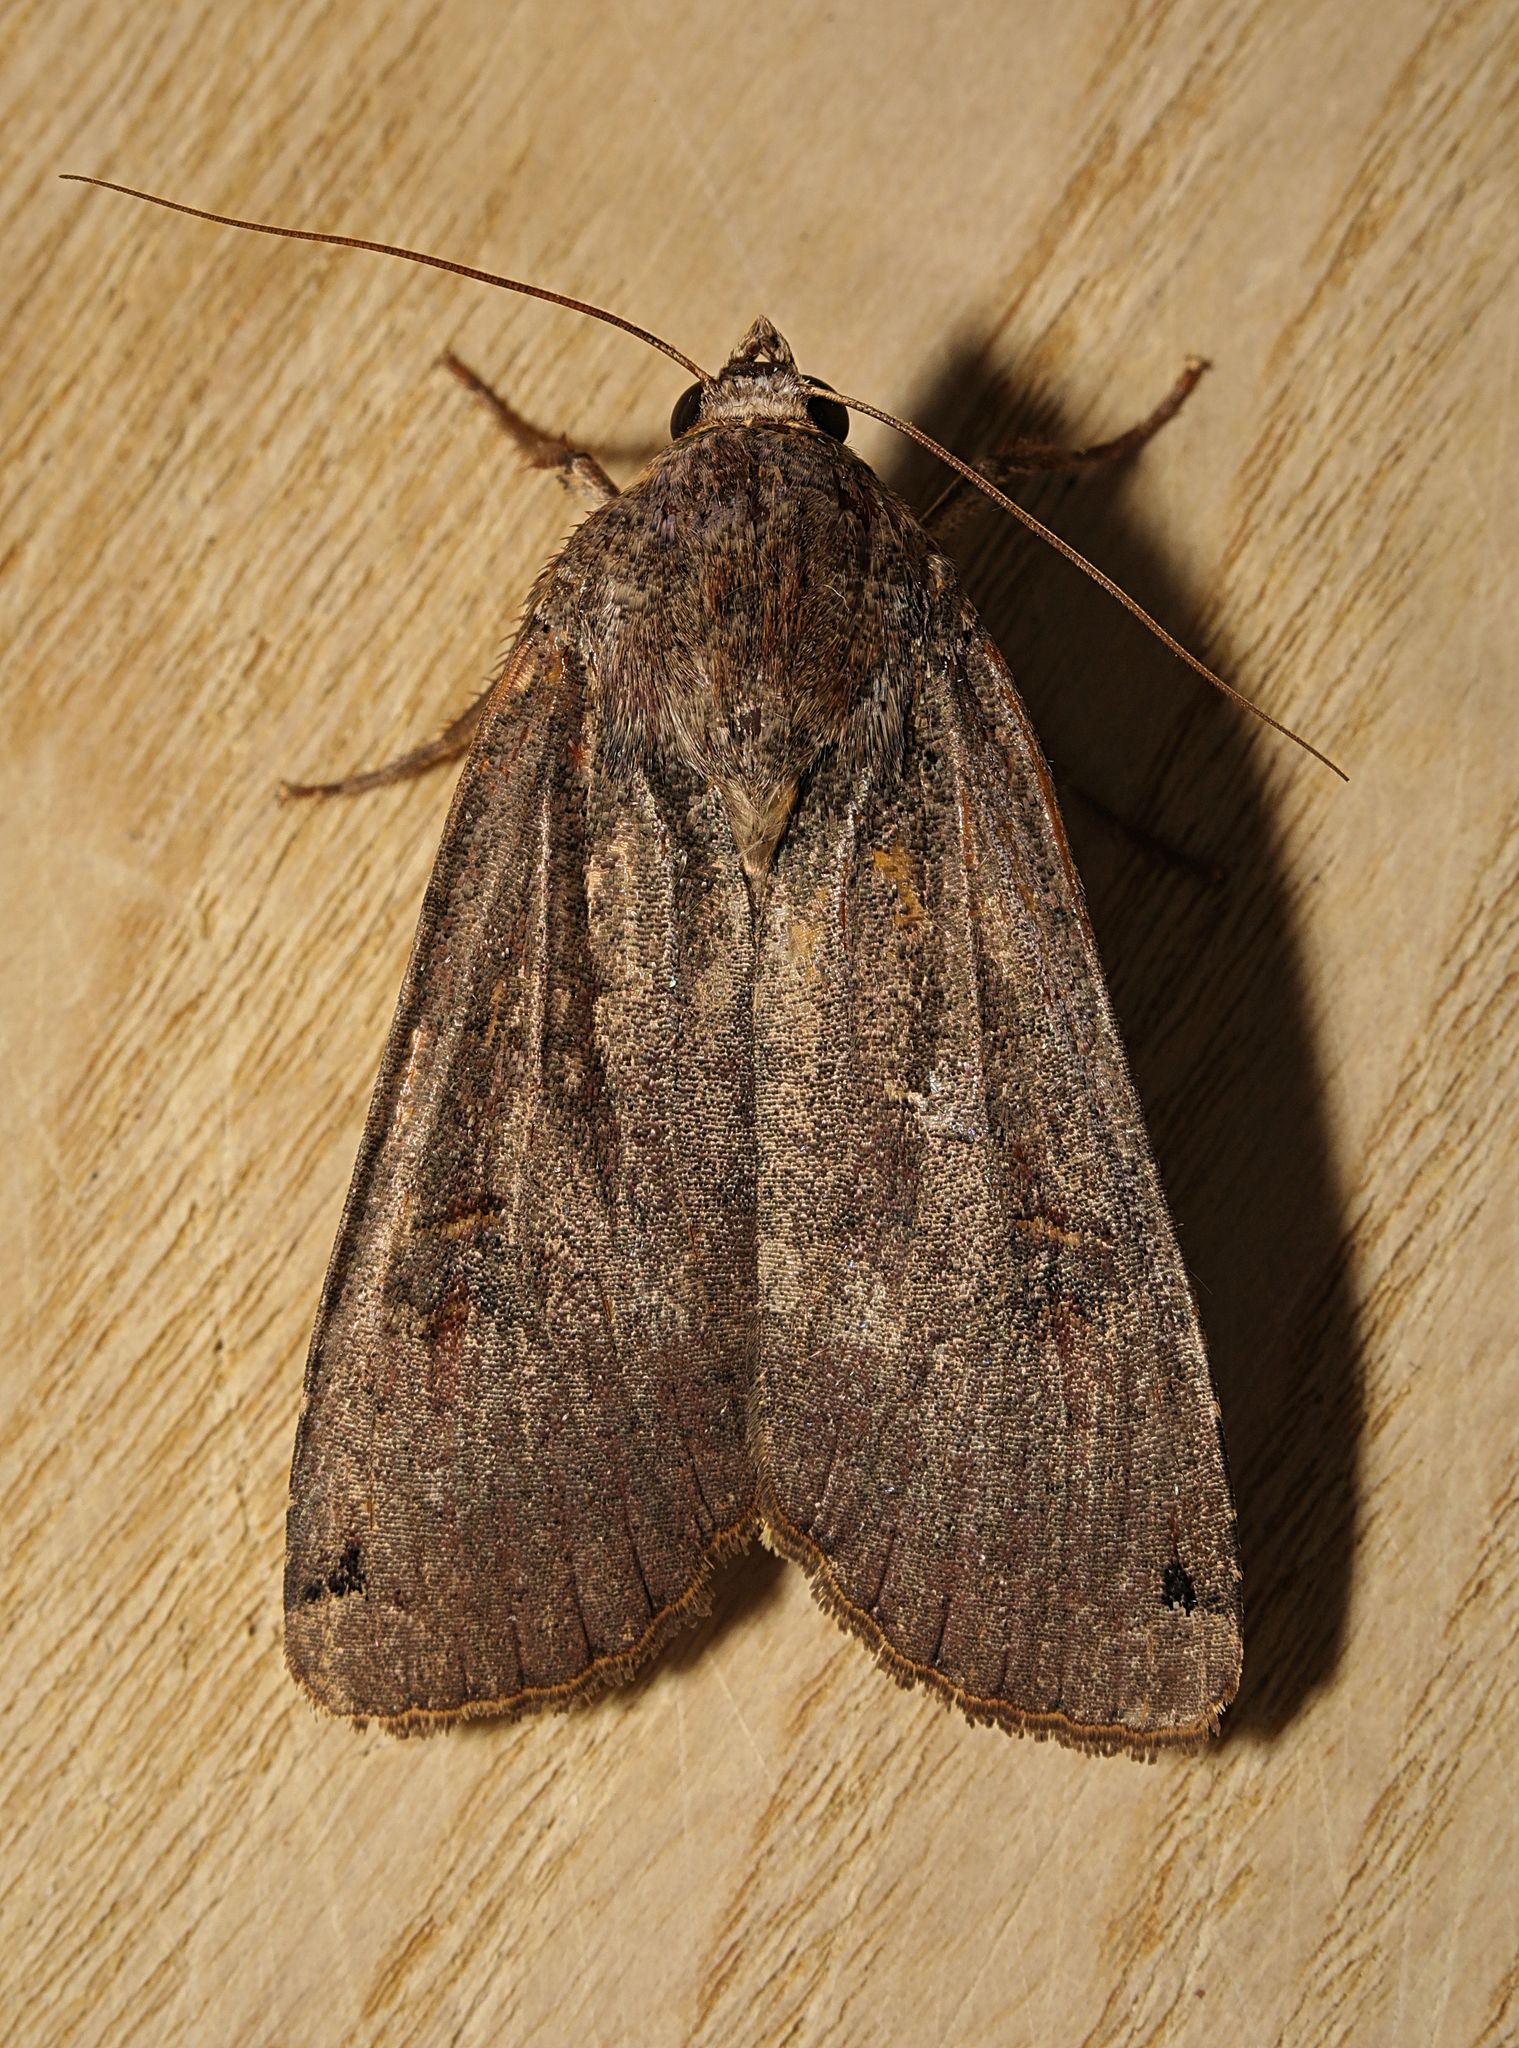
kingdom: Animalia
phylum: Arthropoda
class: Insecta
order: Lepidoptera
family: Noctuidae
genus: Noctua
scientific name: Noctua pronuba
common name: Large yellow underwing
